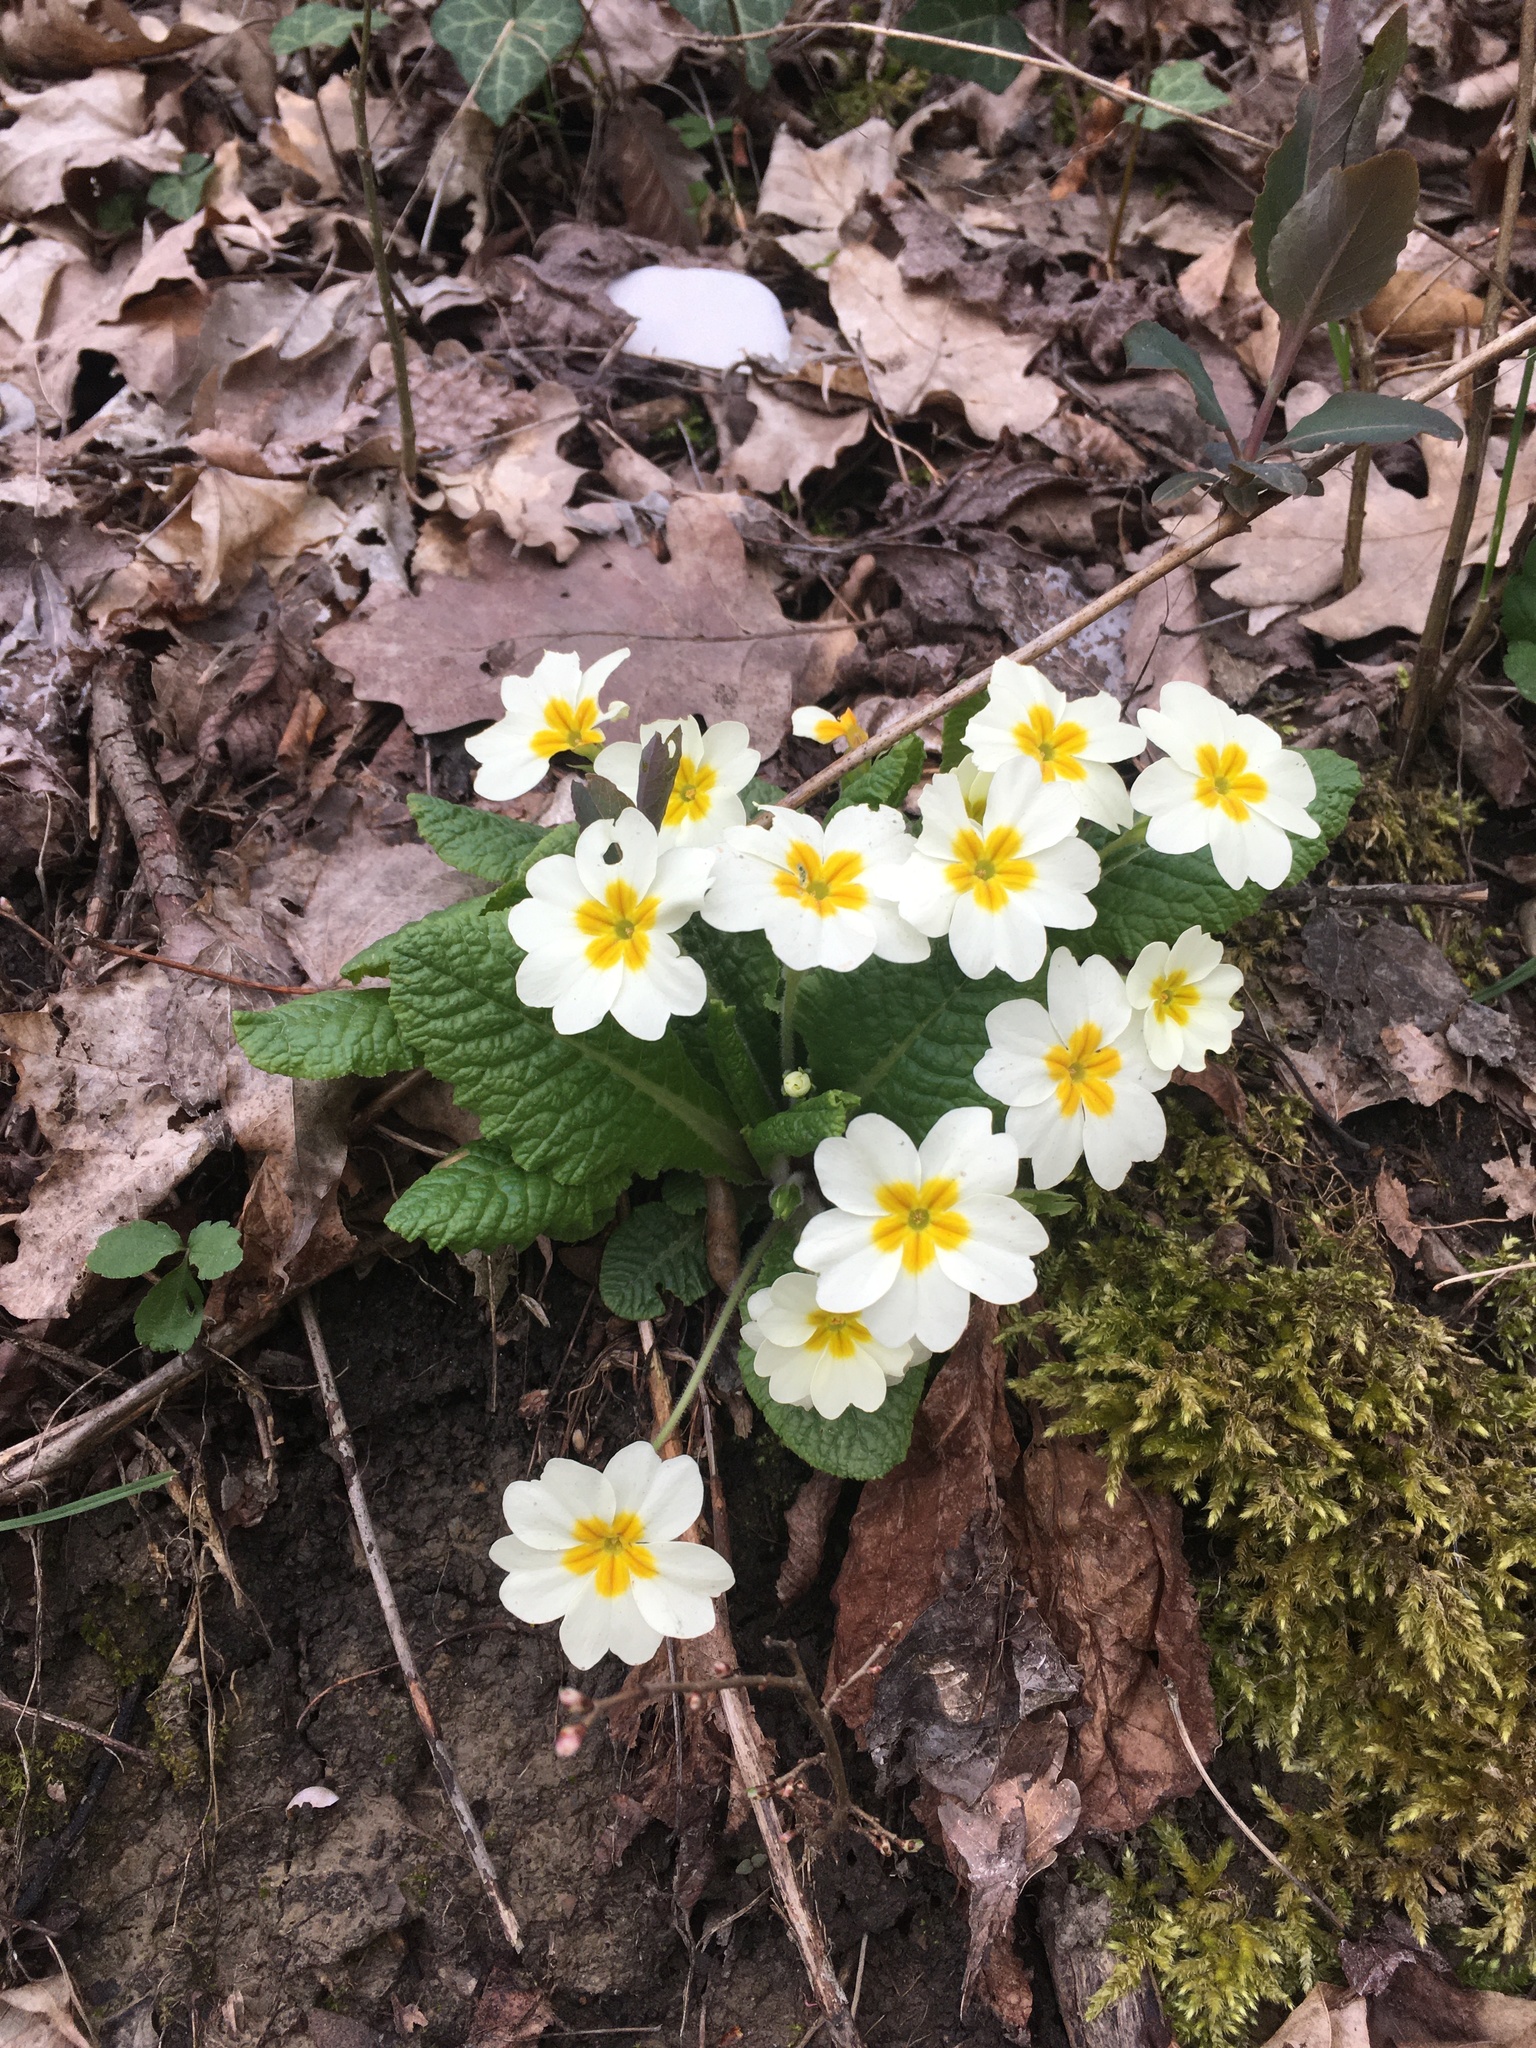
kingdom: Plantae
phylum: Tracheophyta
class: Magnoliopsida
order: Ericales
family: Primulaceae
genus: Primula
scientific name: Primula vulgaris
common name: Primrose
